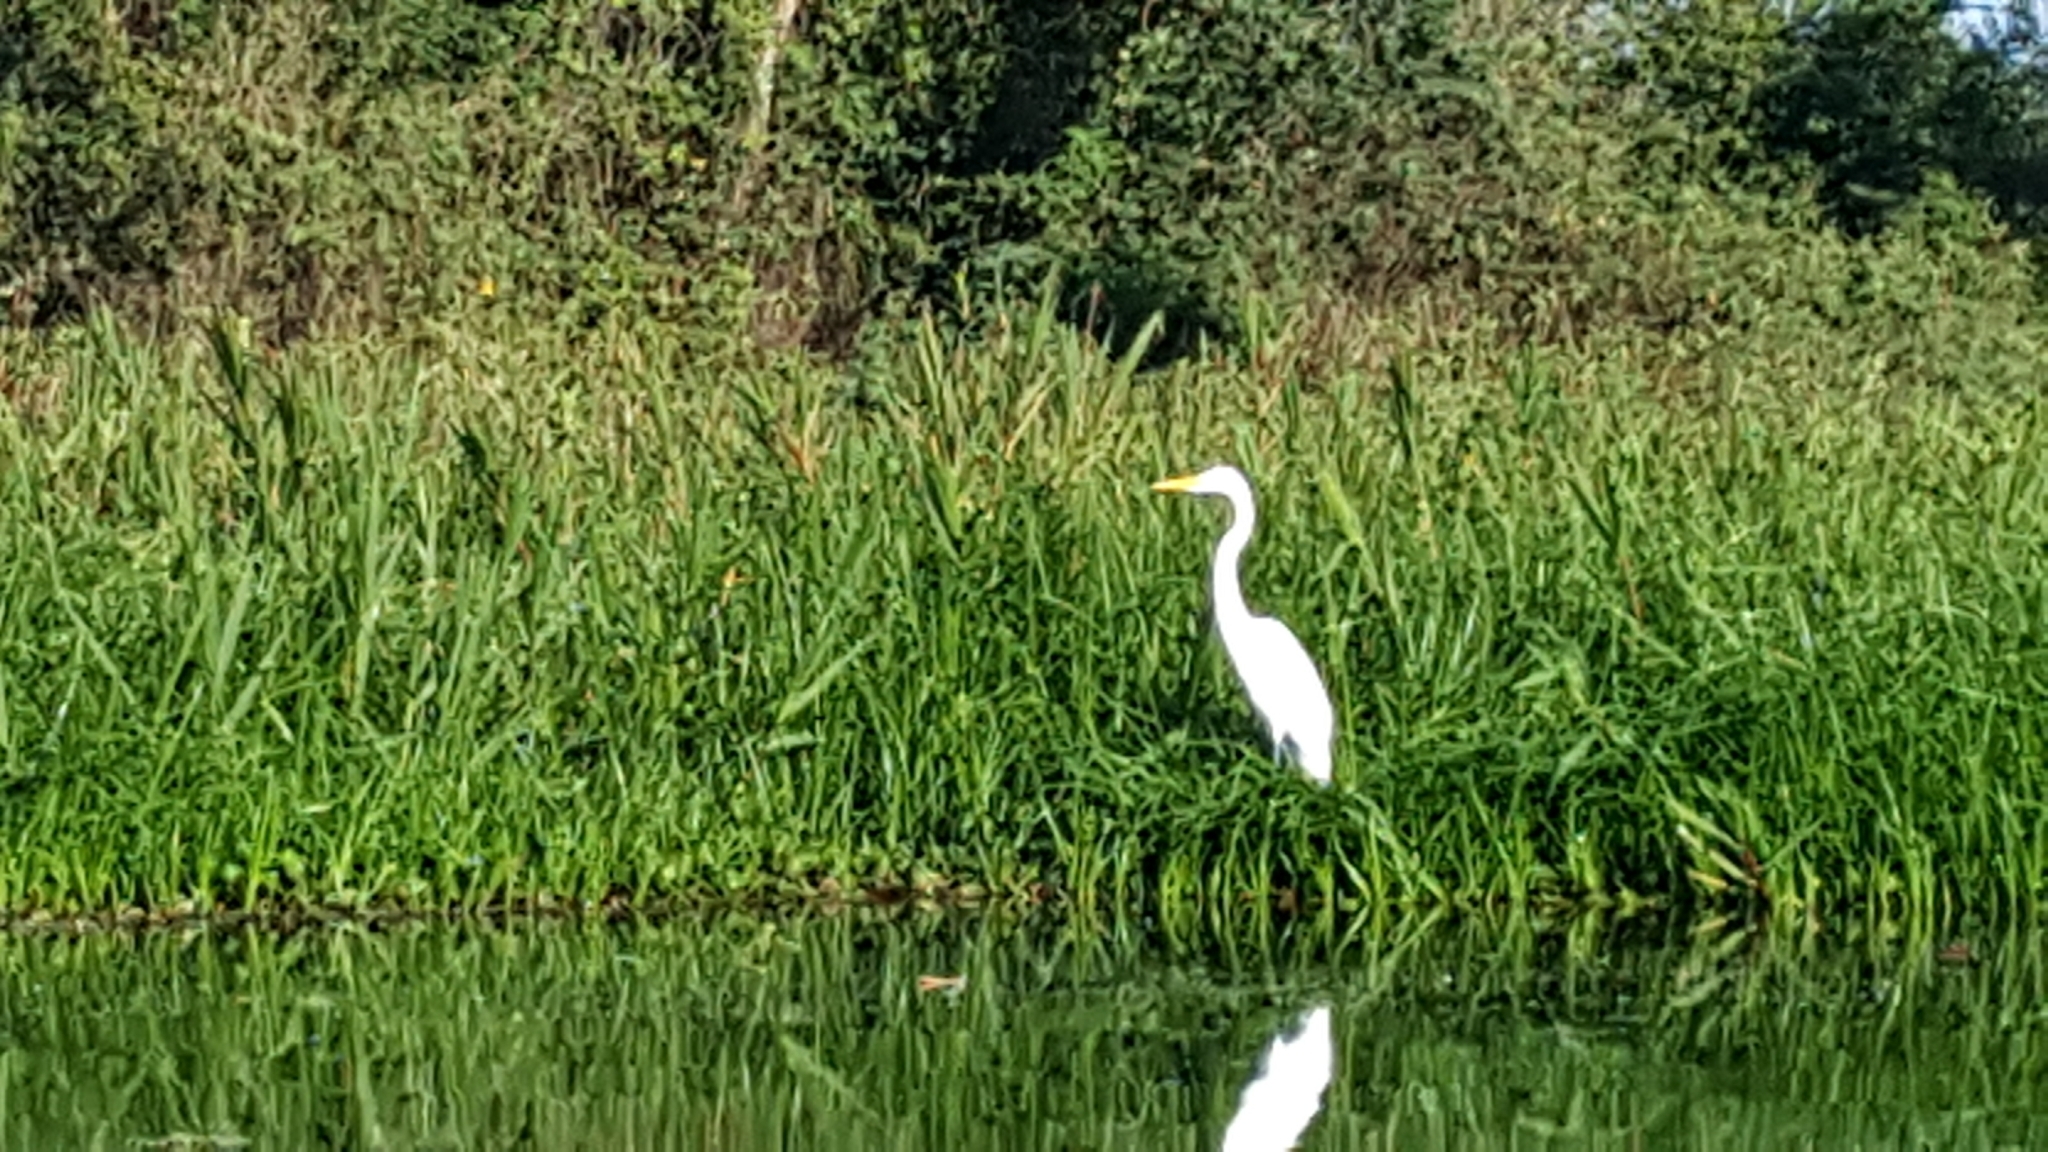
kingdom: Animalia
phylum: Chordata
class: Aves
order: Pelecaniformes
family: Ardeidae
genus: Ardea
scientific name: Ardea alba
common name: Great egret
